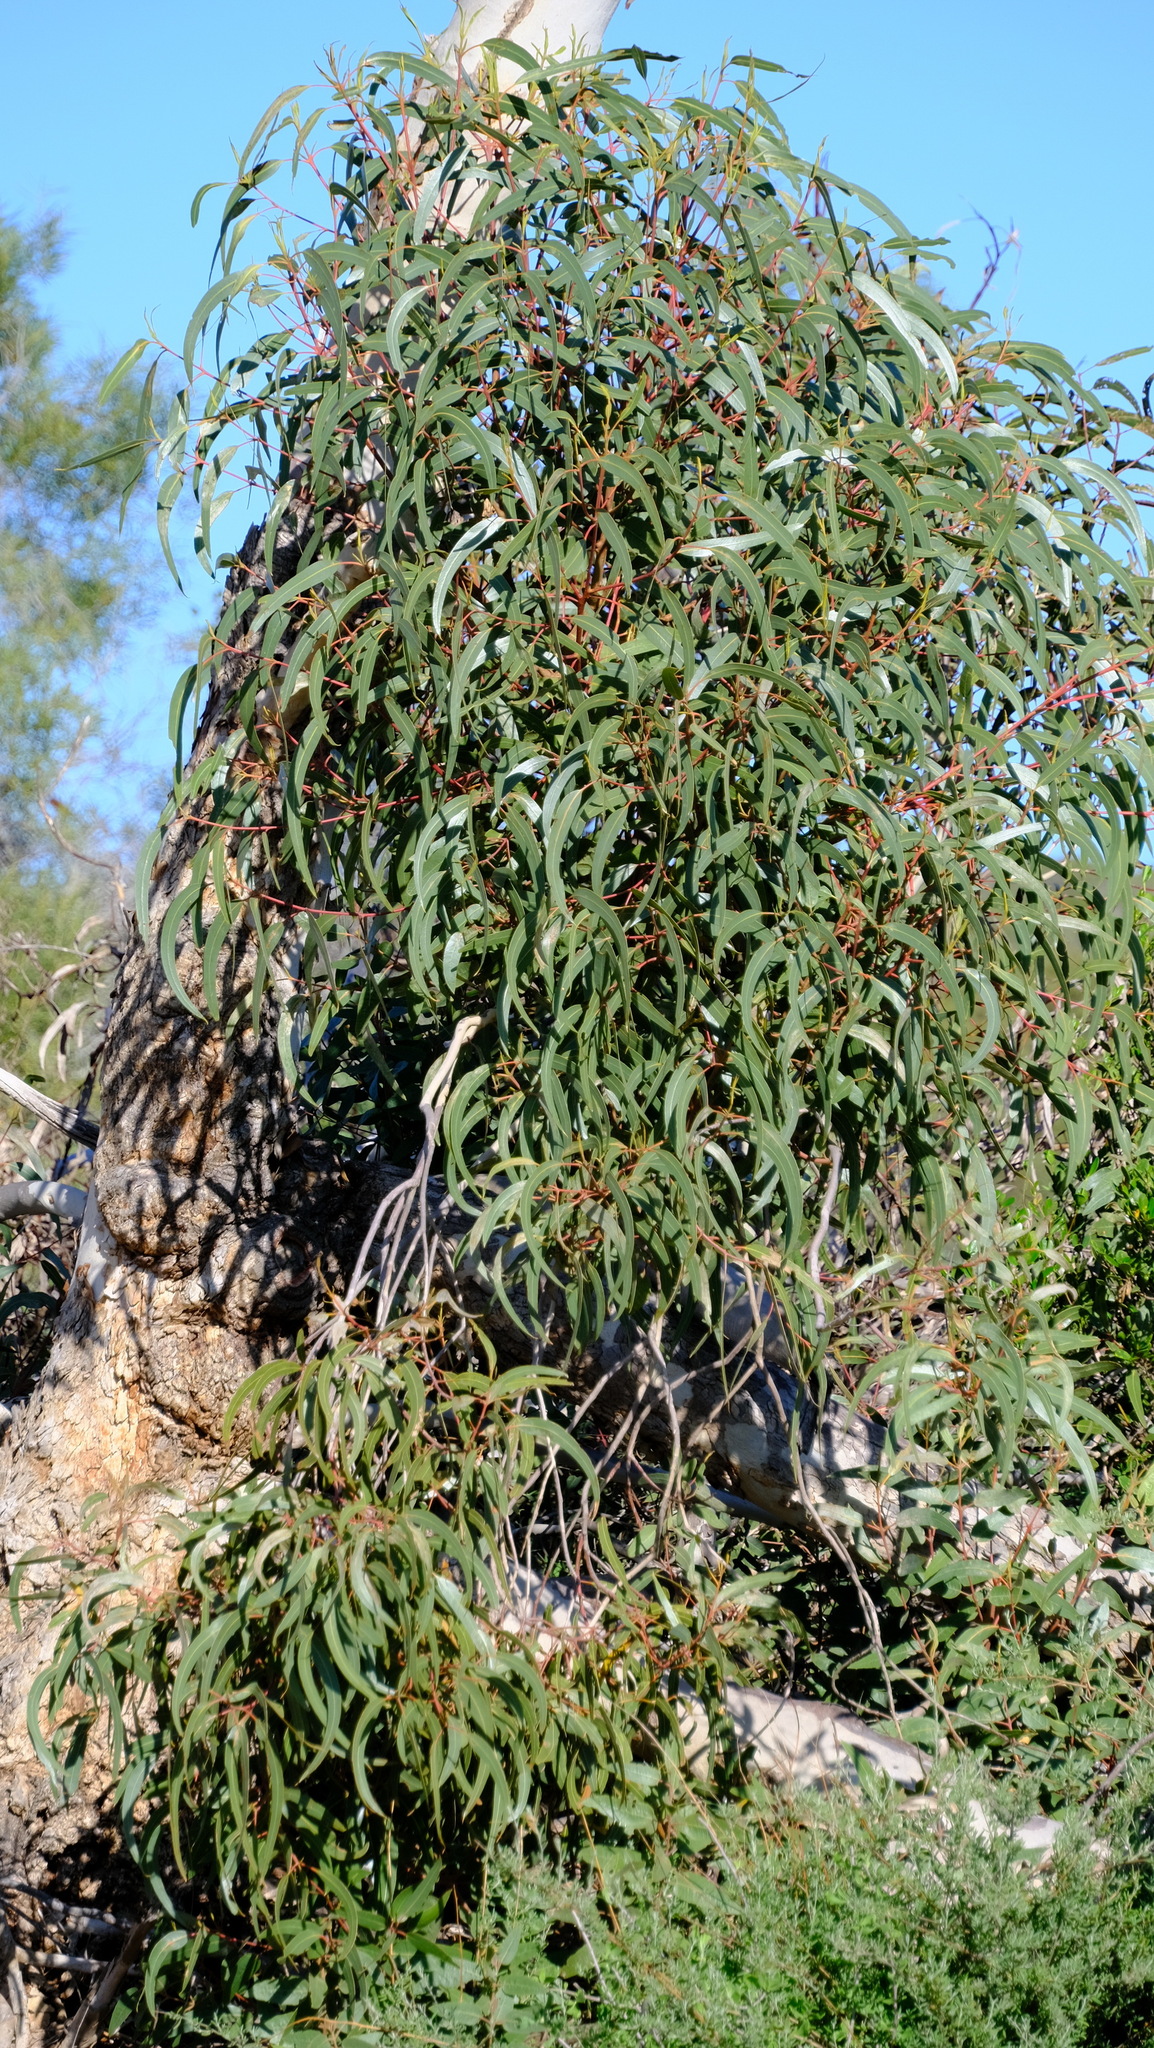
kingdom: Plantae
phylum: Tracheophyta
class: Magnoliopsida
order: Myrtales
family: Myrtaceae
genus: Eucalyptus
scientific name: Eucalyptus erythrocorys
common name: Bookara gum
